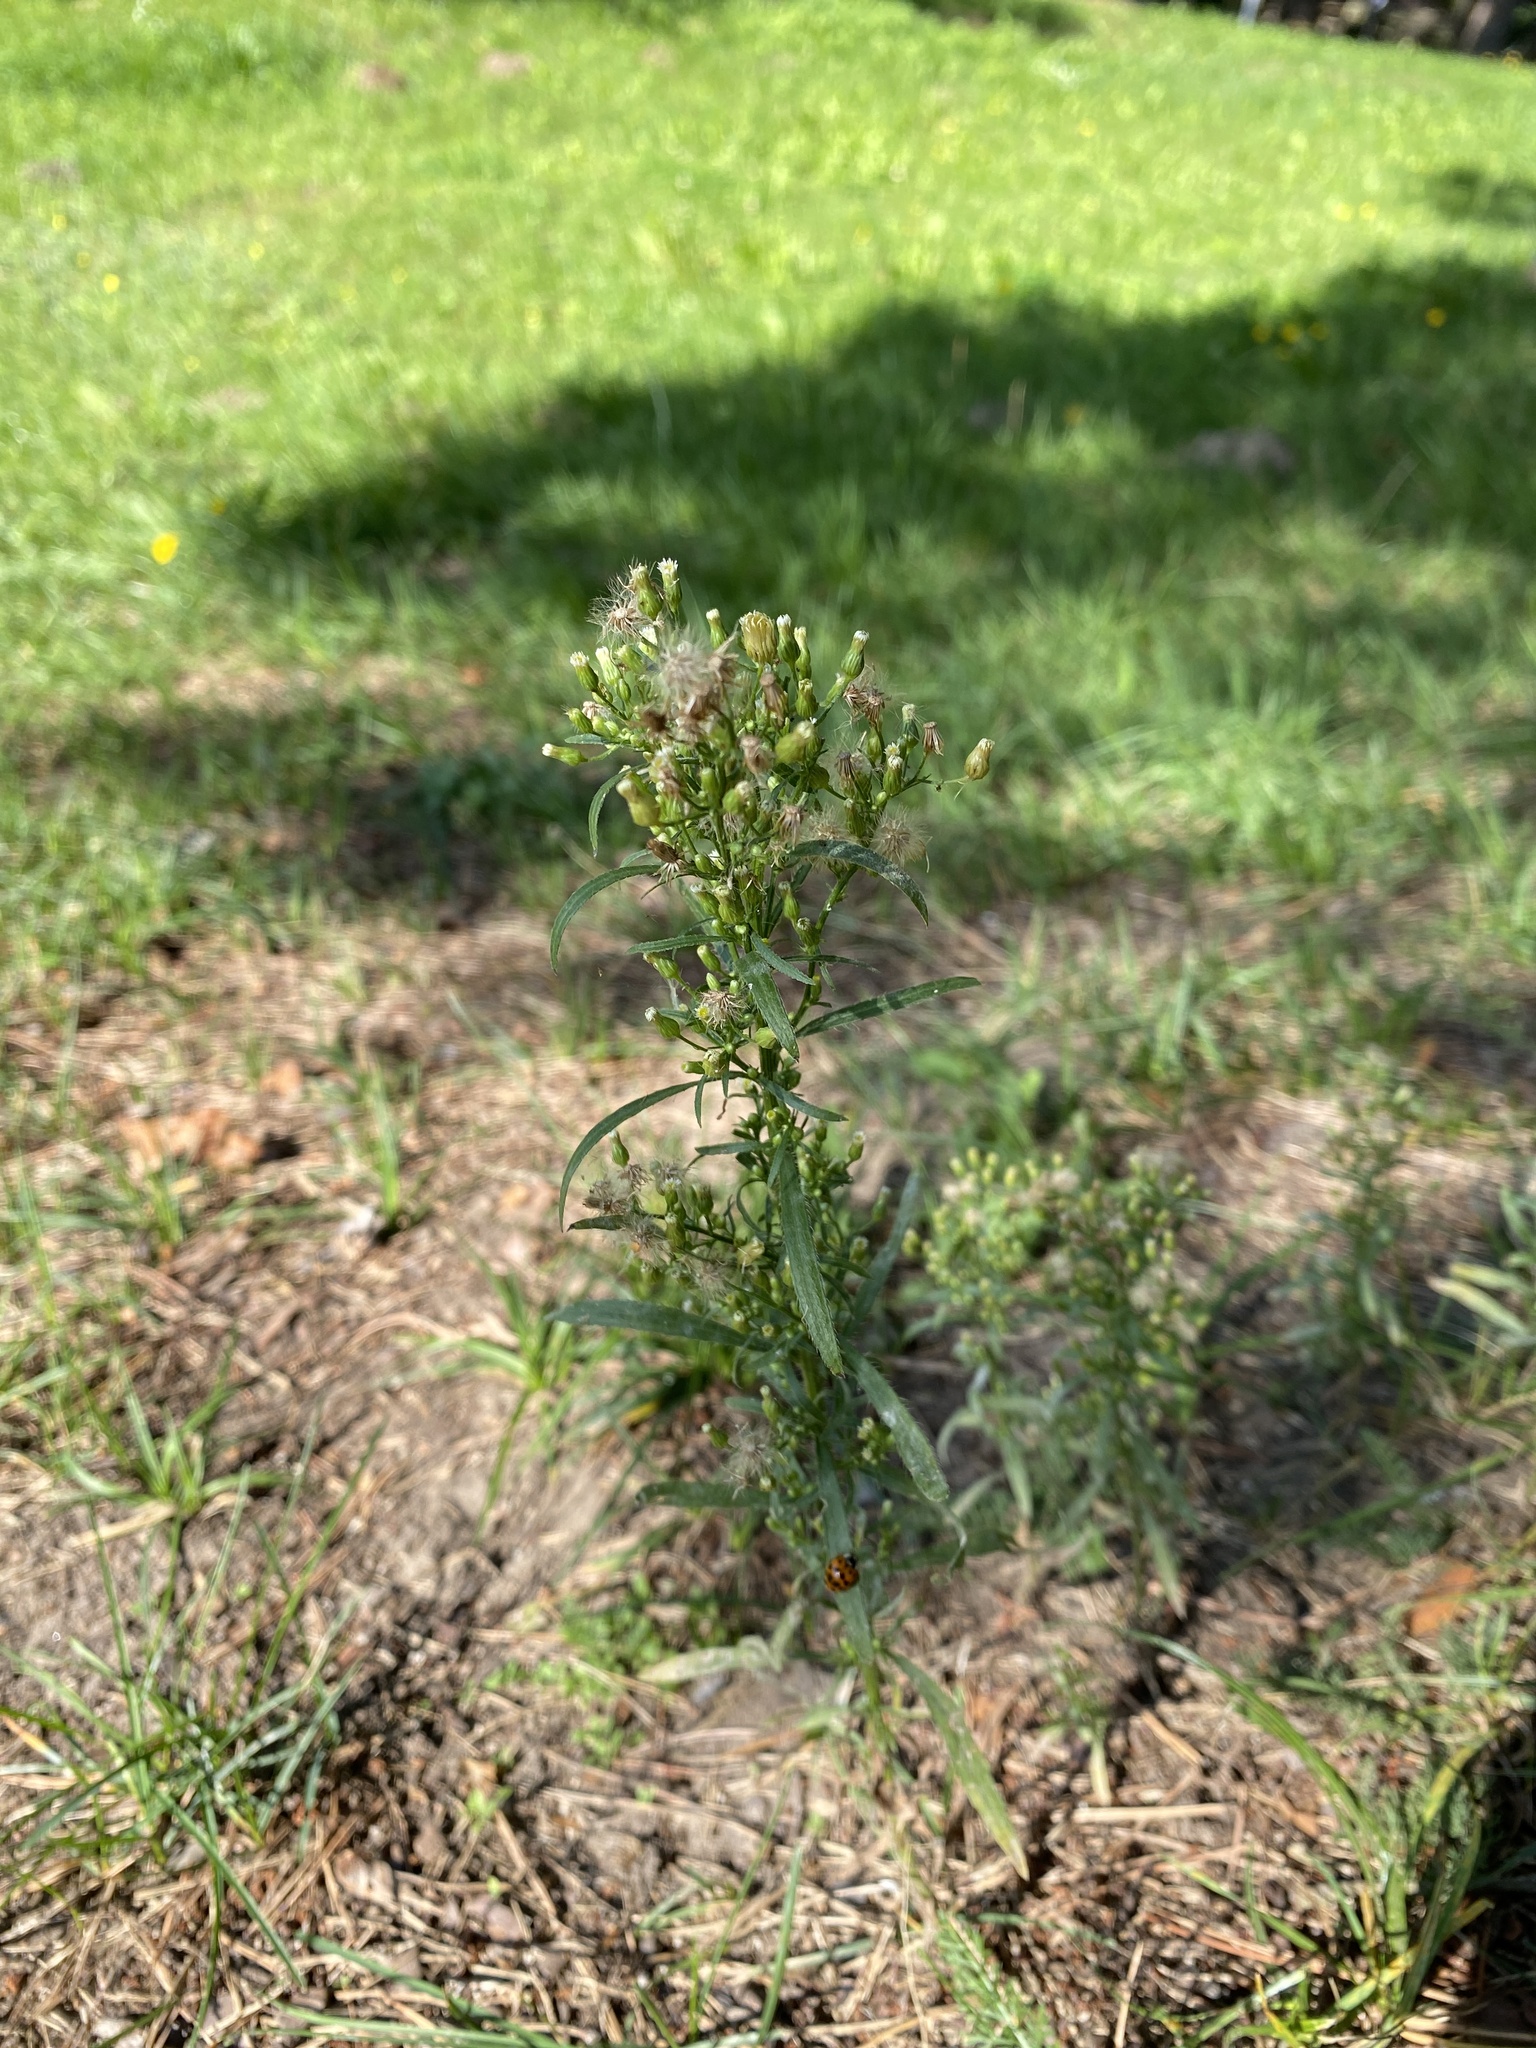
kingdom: Plantae
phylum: Tracheophyta
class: Magnoliopsida
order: Asterales
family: Asteraceae
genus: Erigeron
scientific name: Erigeron canadensis
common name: Canadian fleabane
